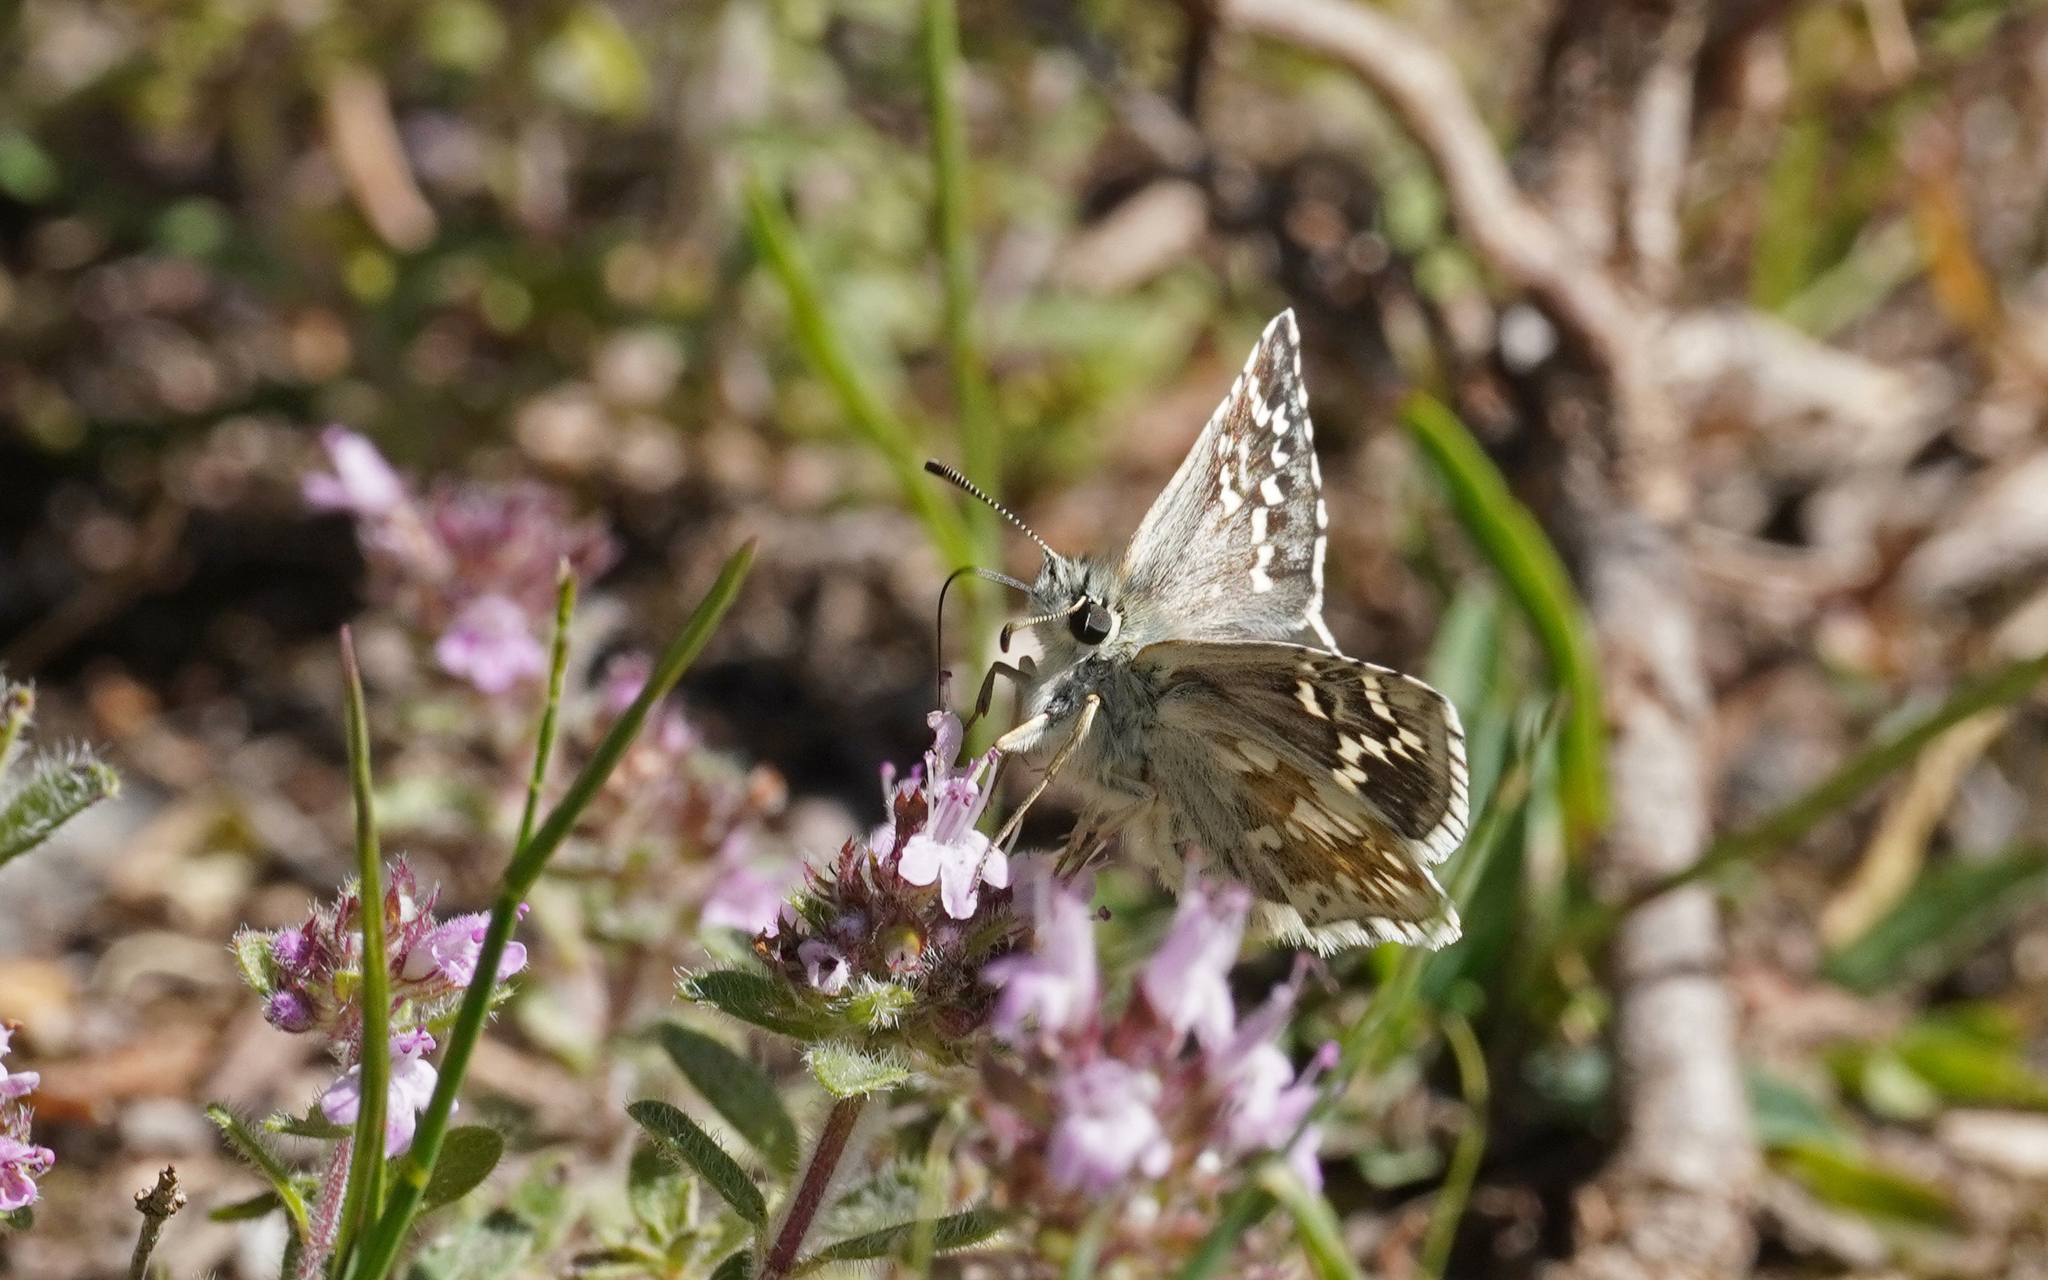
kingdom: Animalia
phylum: Arthropoda
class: Insecta
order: Lepidoptera
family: Hesperiidae
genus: Pyrgus
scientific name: Pyrgus fritillarius
